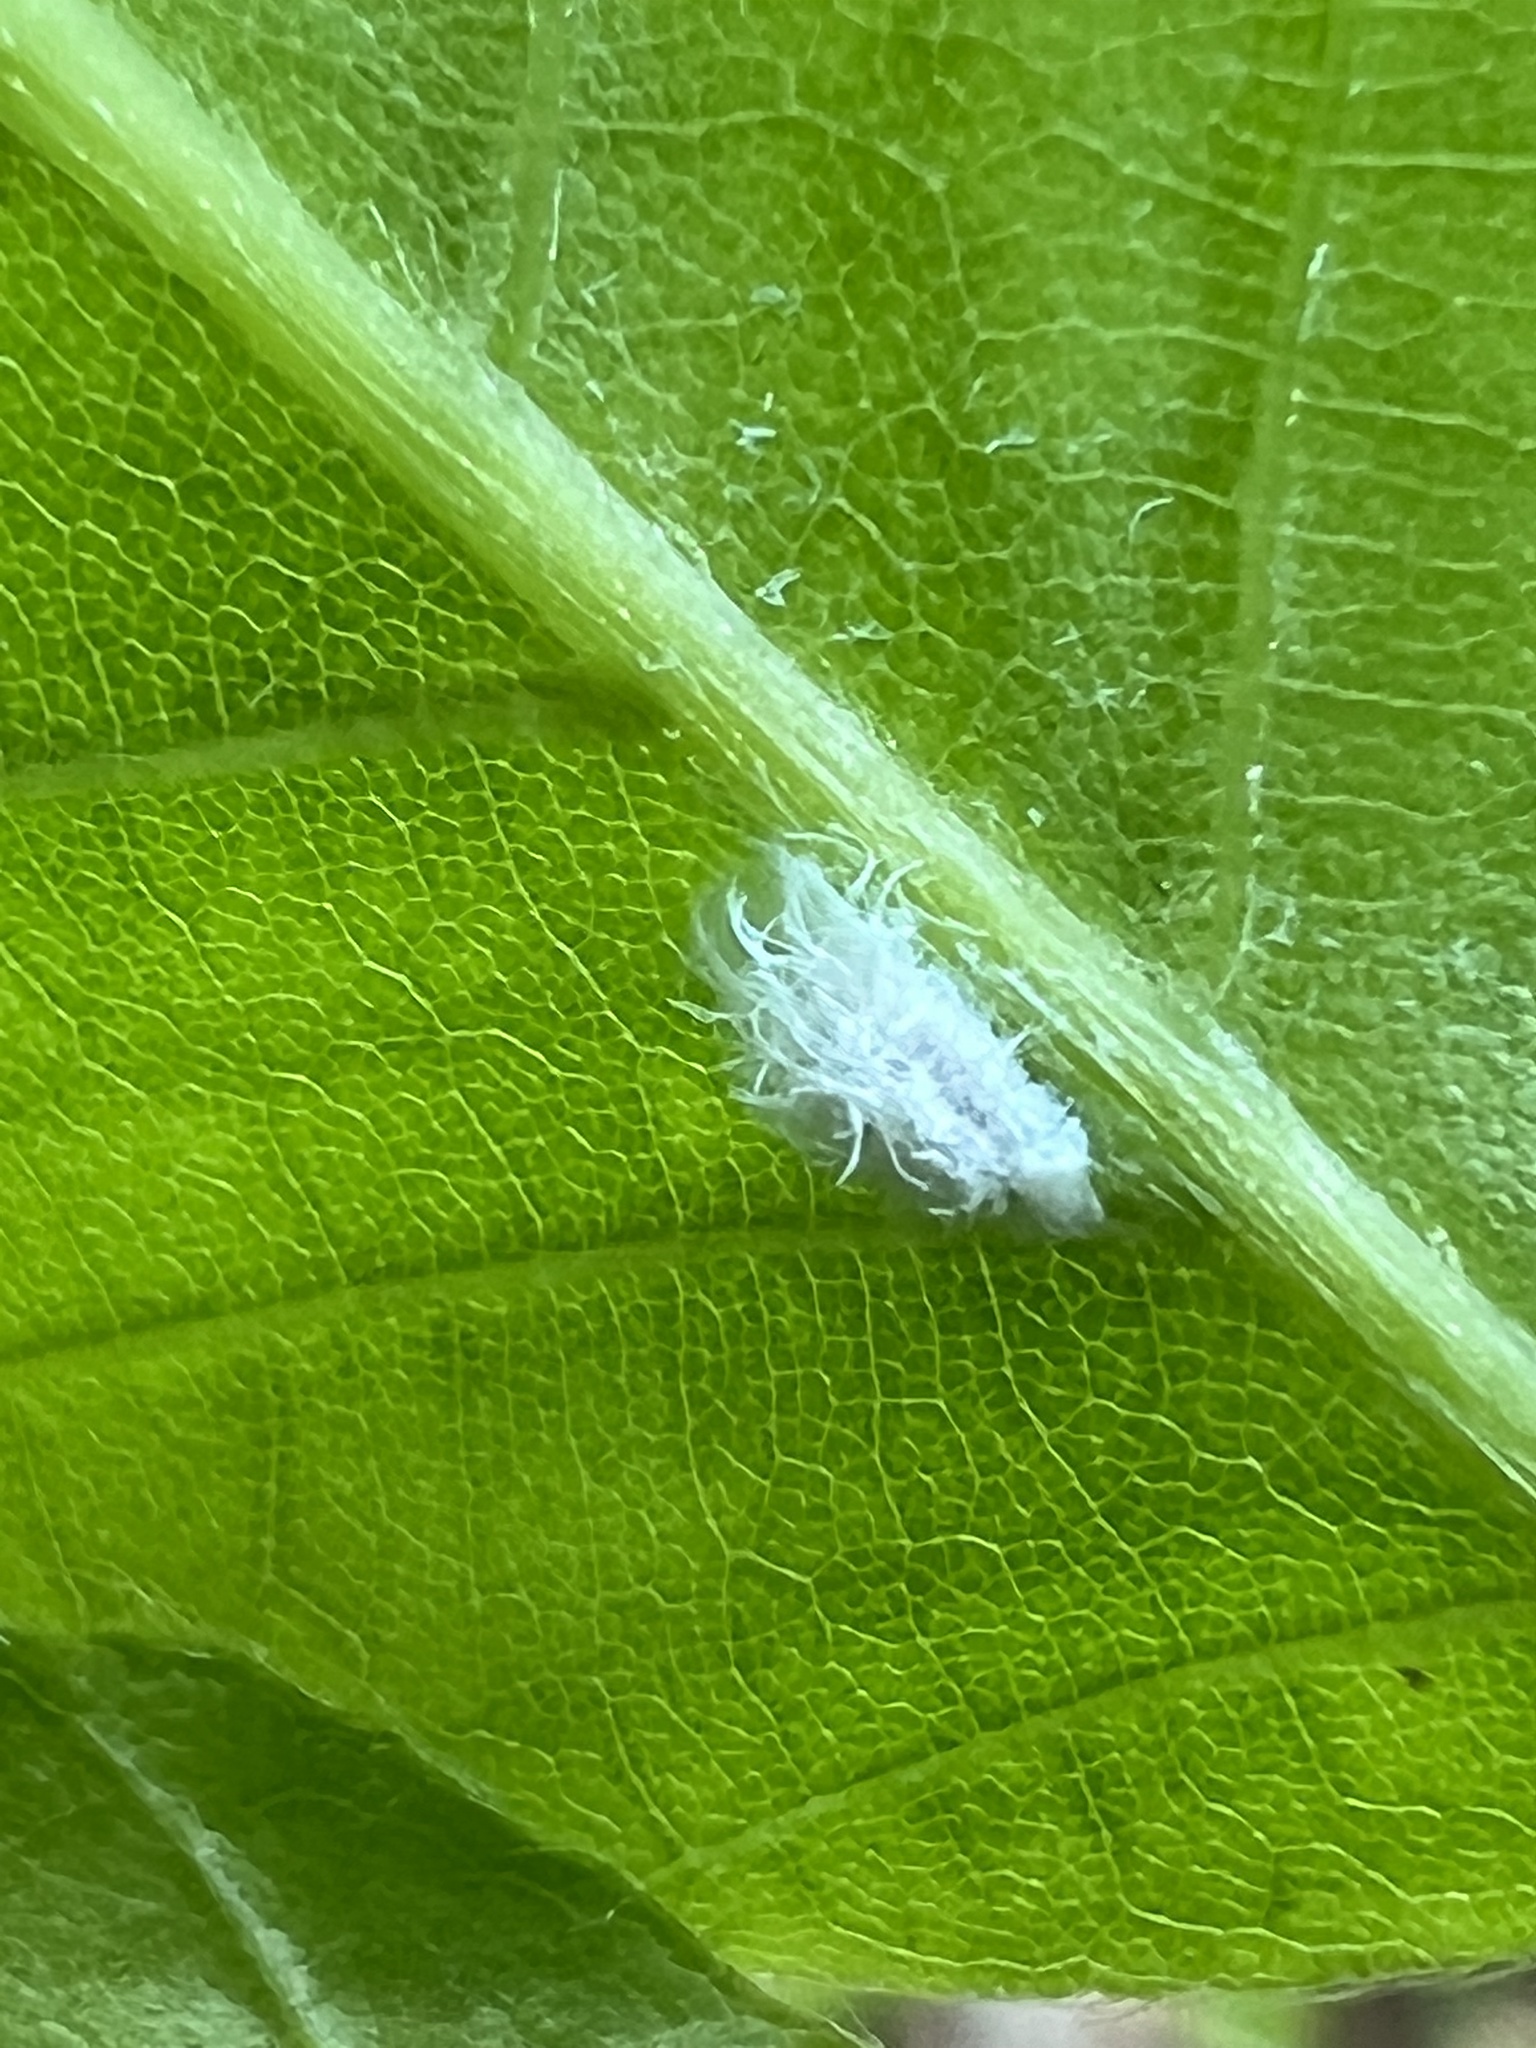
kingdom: Animalia
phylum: Arthropoda
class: Insecta
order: Hemiptera
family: Aphididae
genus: Prociphilus
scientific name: Prociphilus tessellatus
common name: Woolly alder aphid
